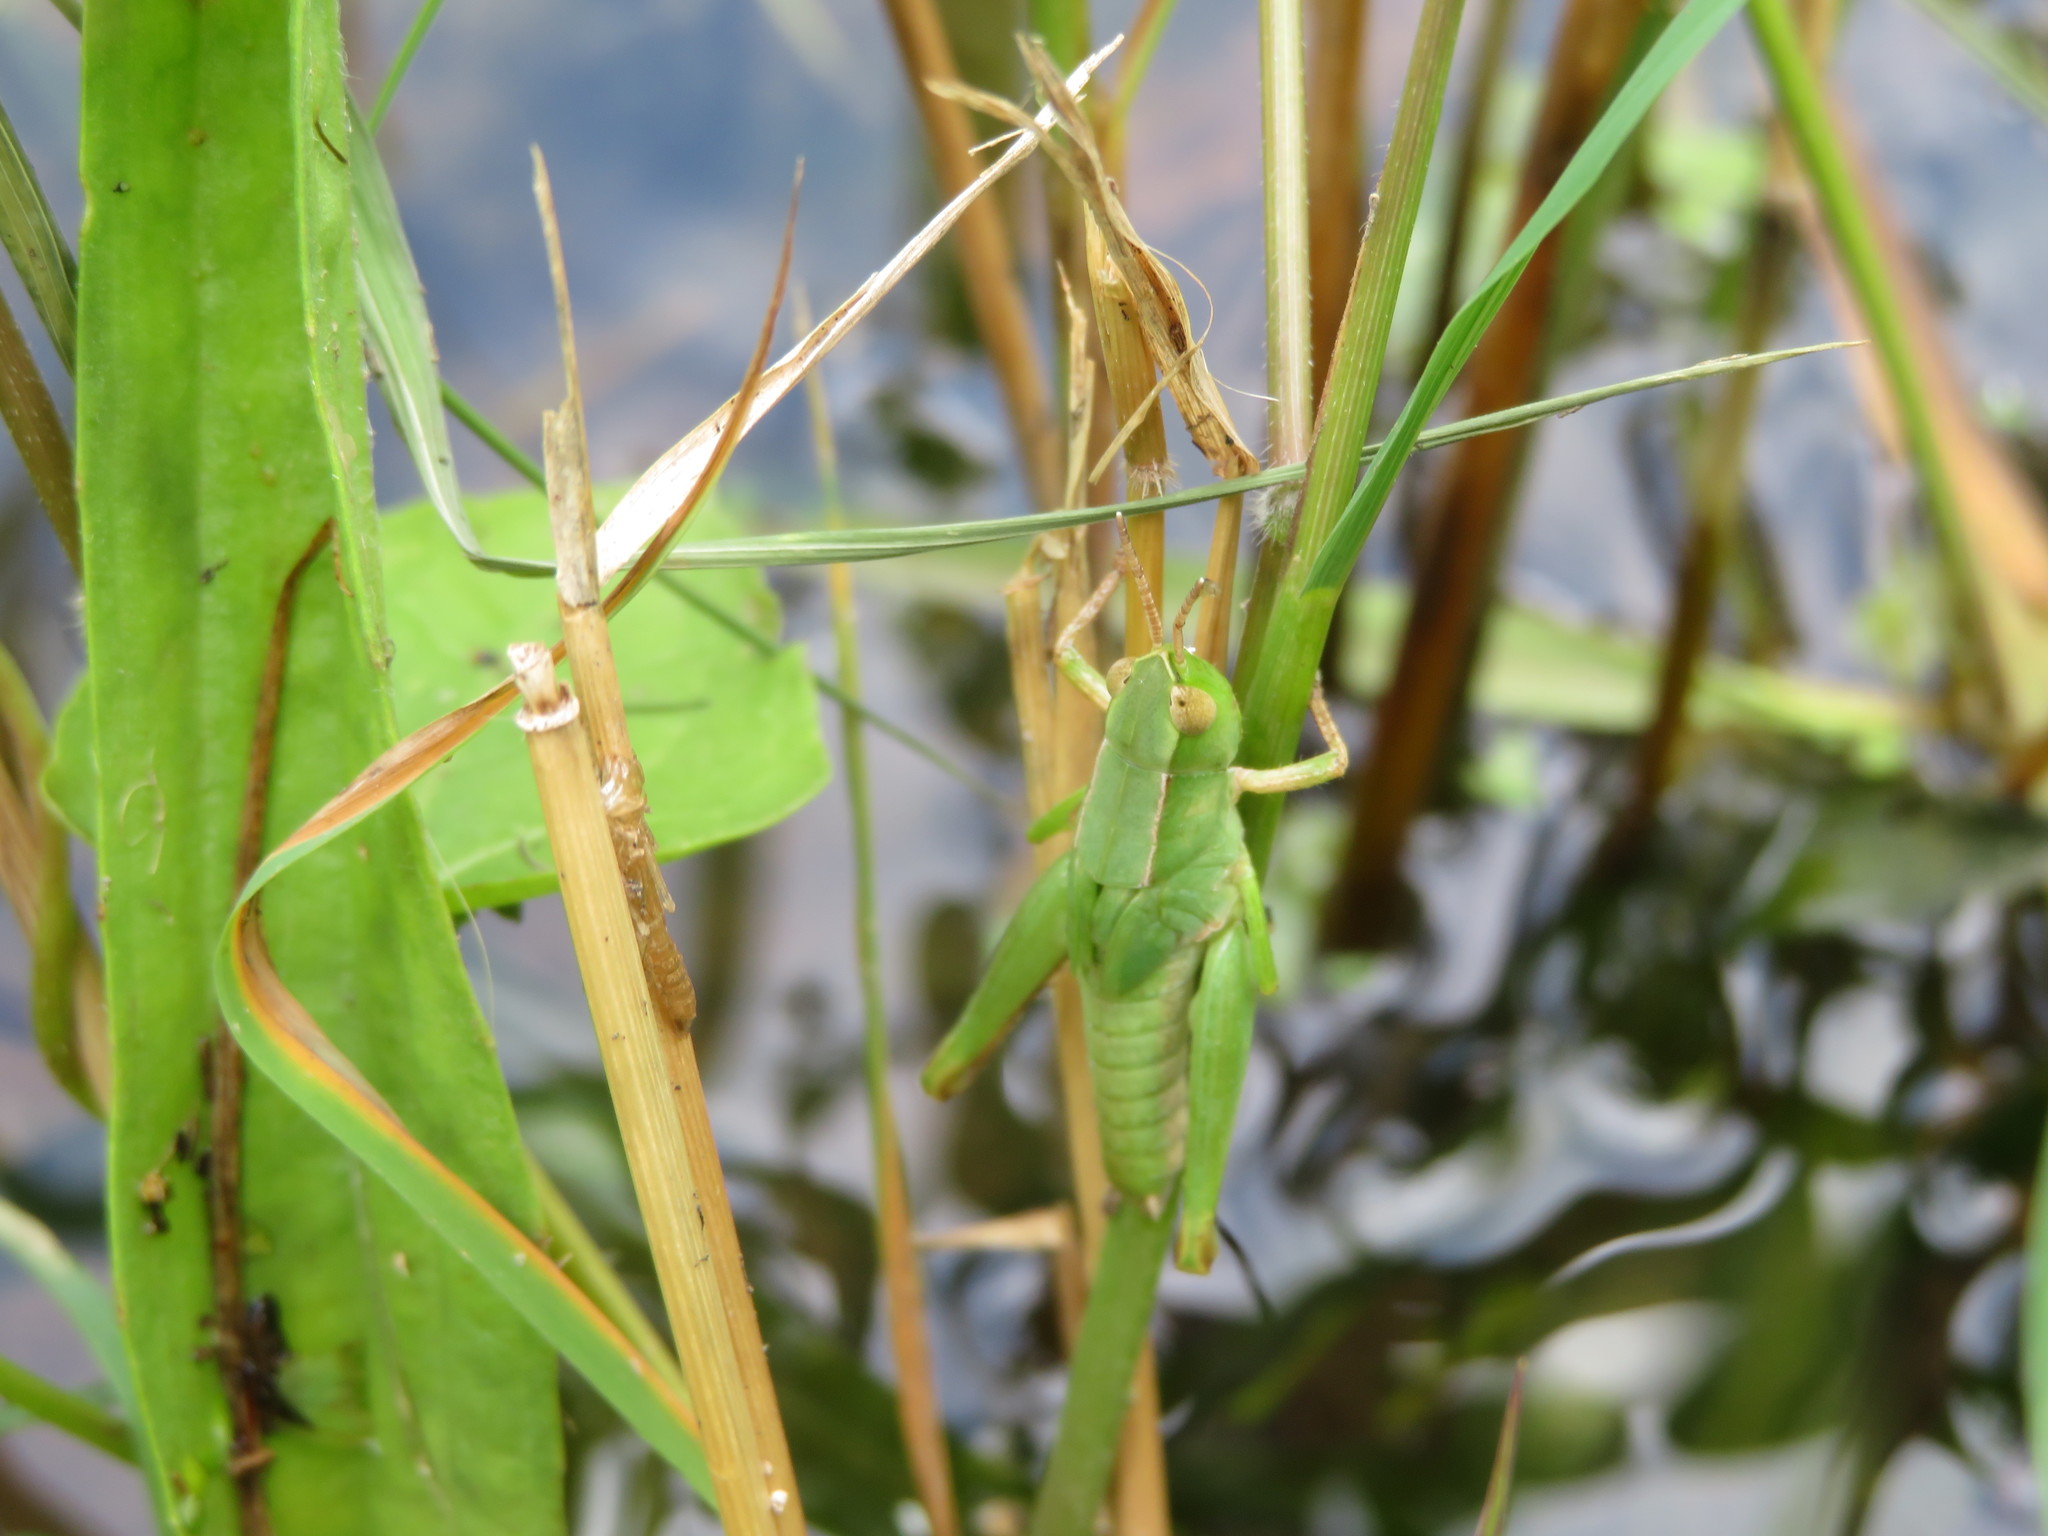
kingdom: Animalia
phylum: Arthropoda
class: Insecta
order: Orthoptera
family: Acrididae
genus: Dichromorpha
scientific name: Dichromorpha viridis
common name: Short-winged green grasshopper
